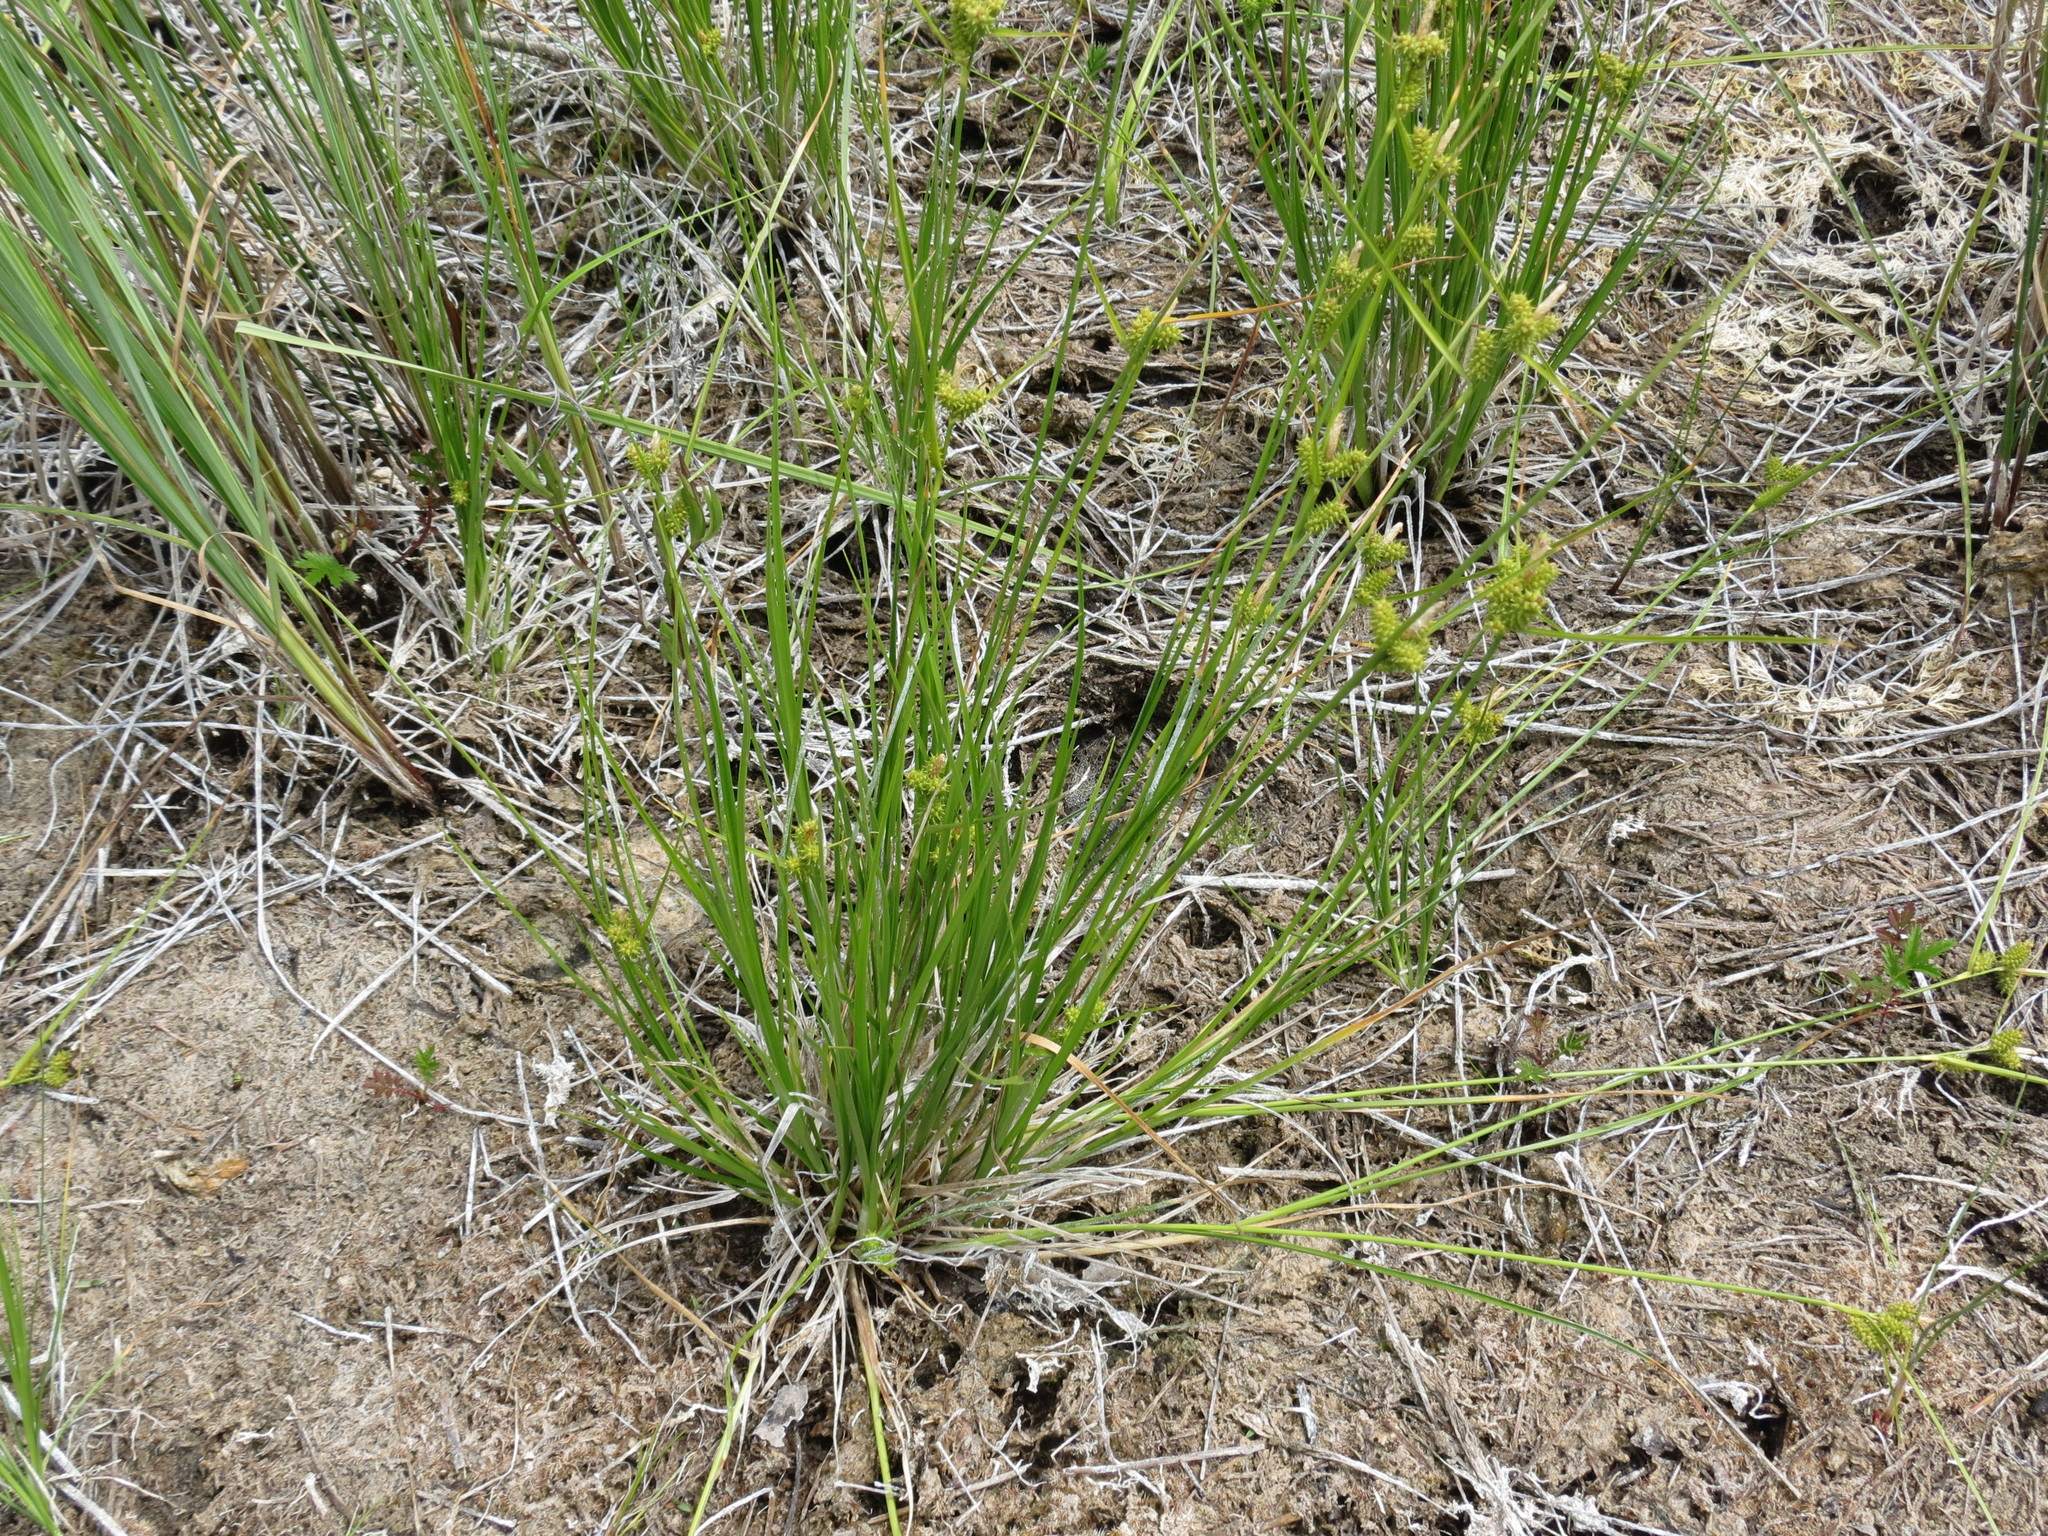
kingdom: Plantae
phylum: Tracheophyta
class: Liliopsida
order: Poales
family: Cyperaceae
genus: Carex
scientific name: Carex
